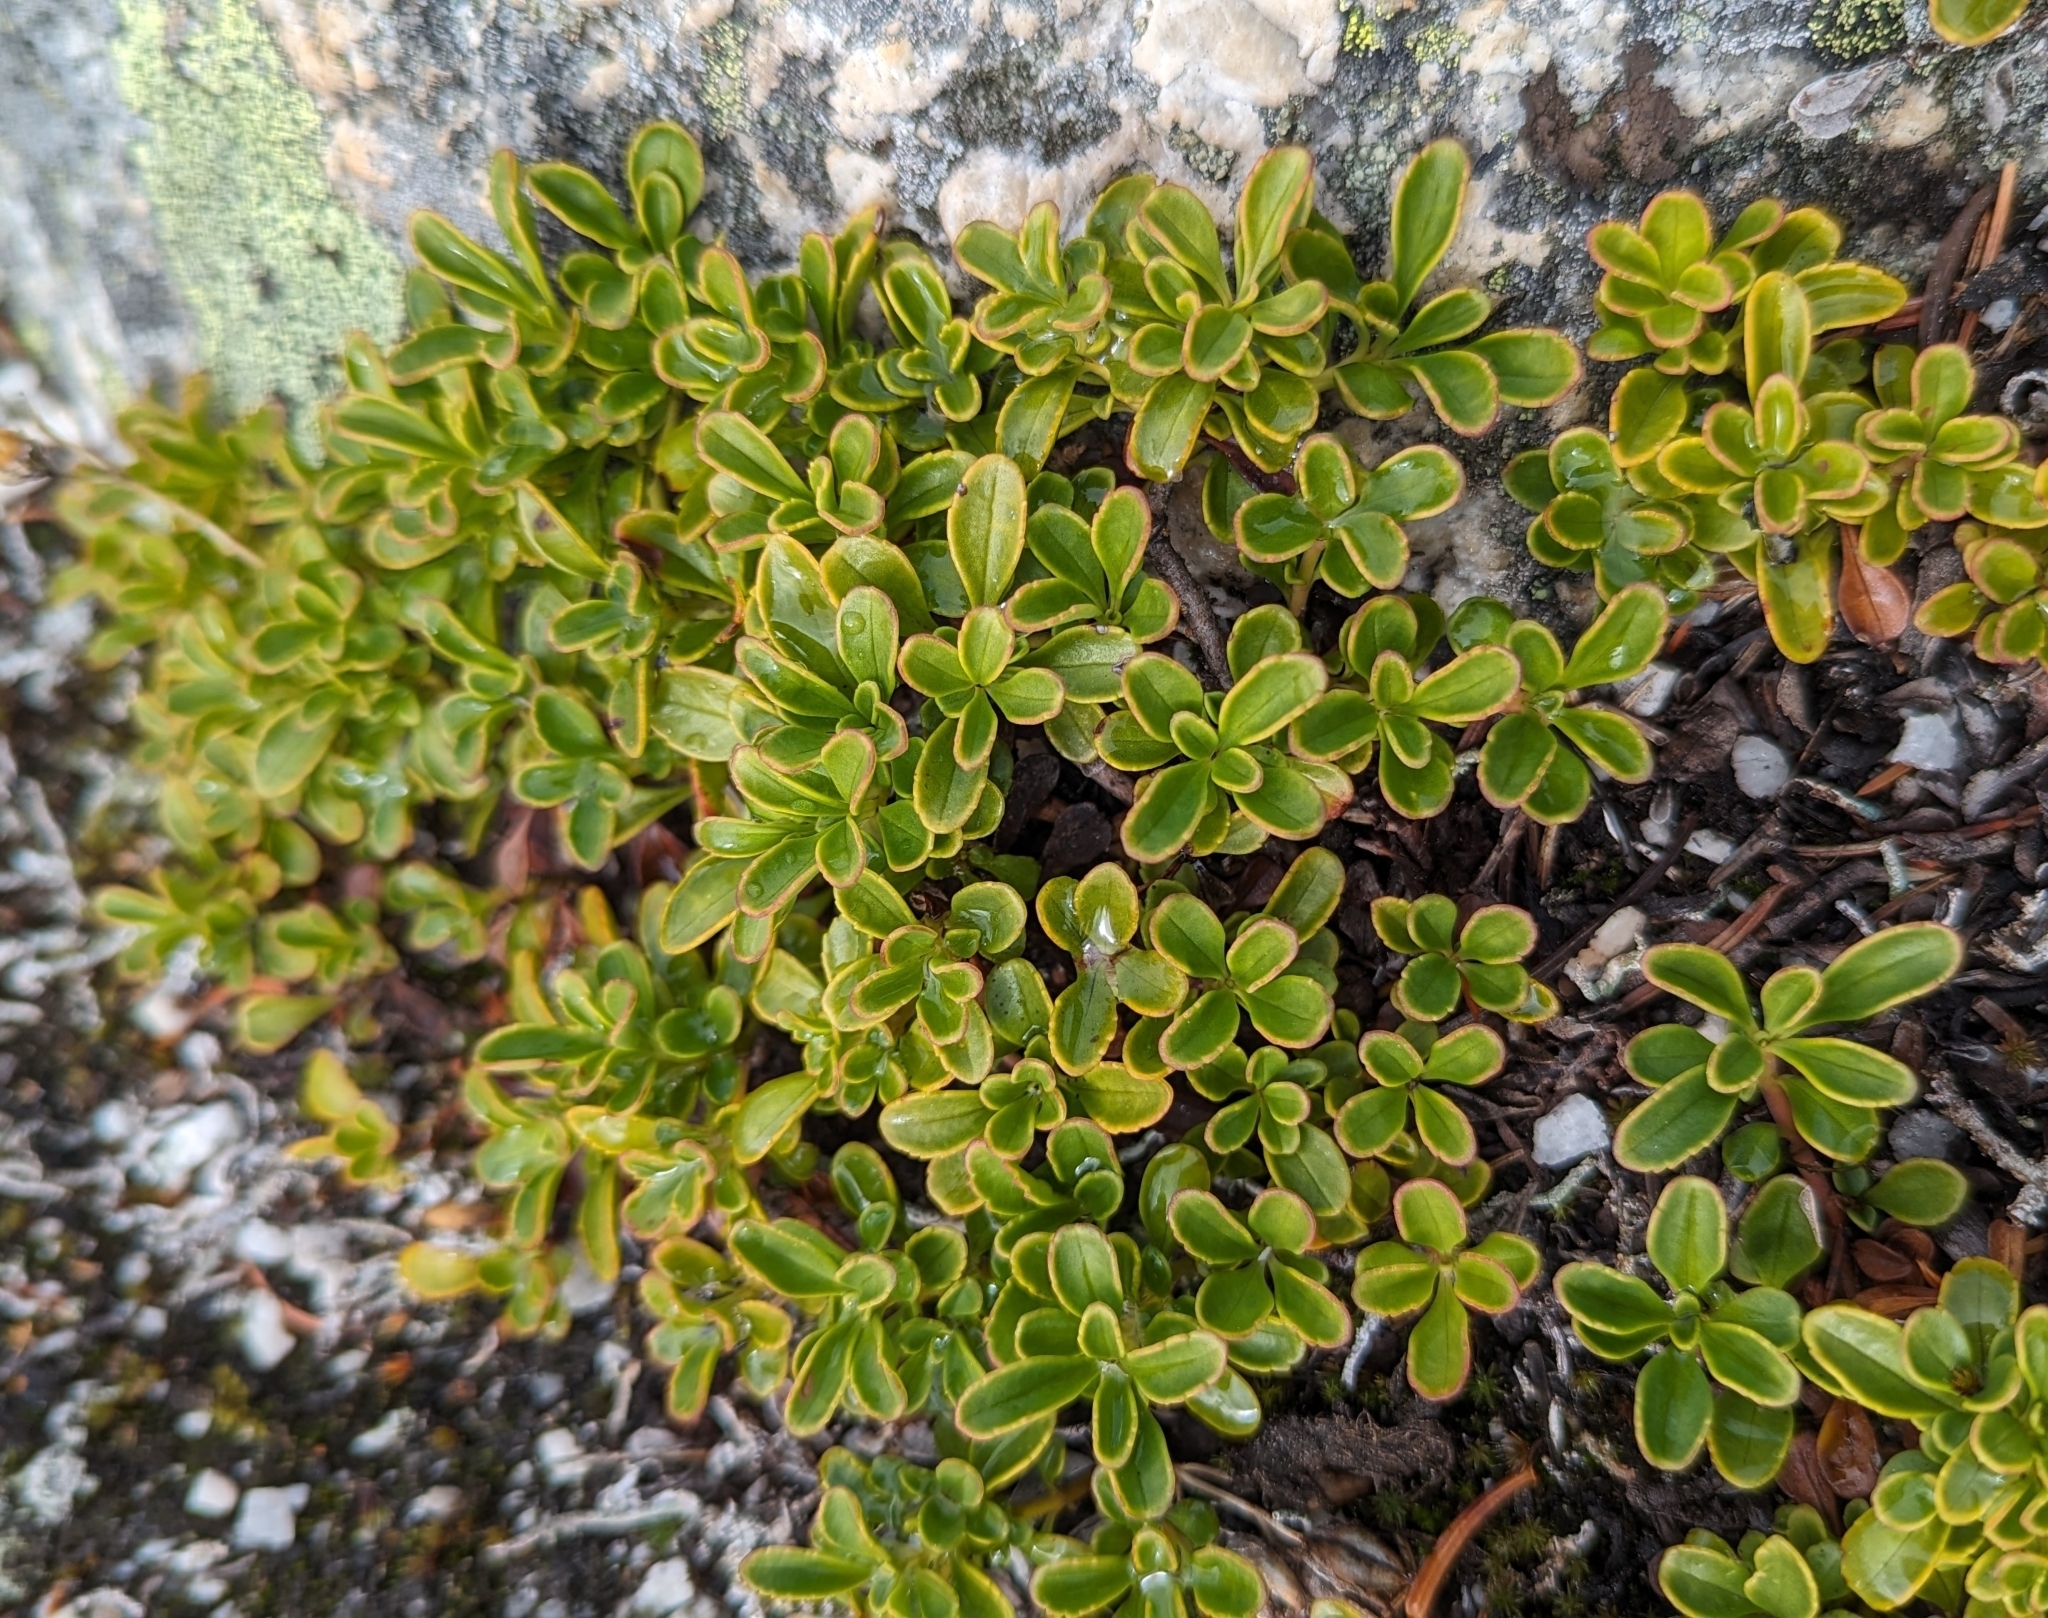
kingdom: Plantae
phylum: Tracheophyta
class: Magnoliopsida
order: Lamiales
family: Plantaginaceae
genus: Penstemon
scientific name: Penstemon davidsonii
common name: Davidson's penstemon
